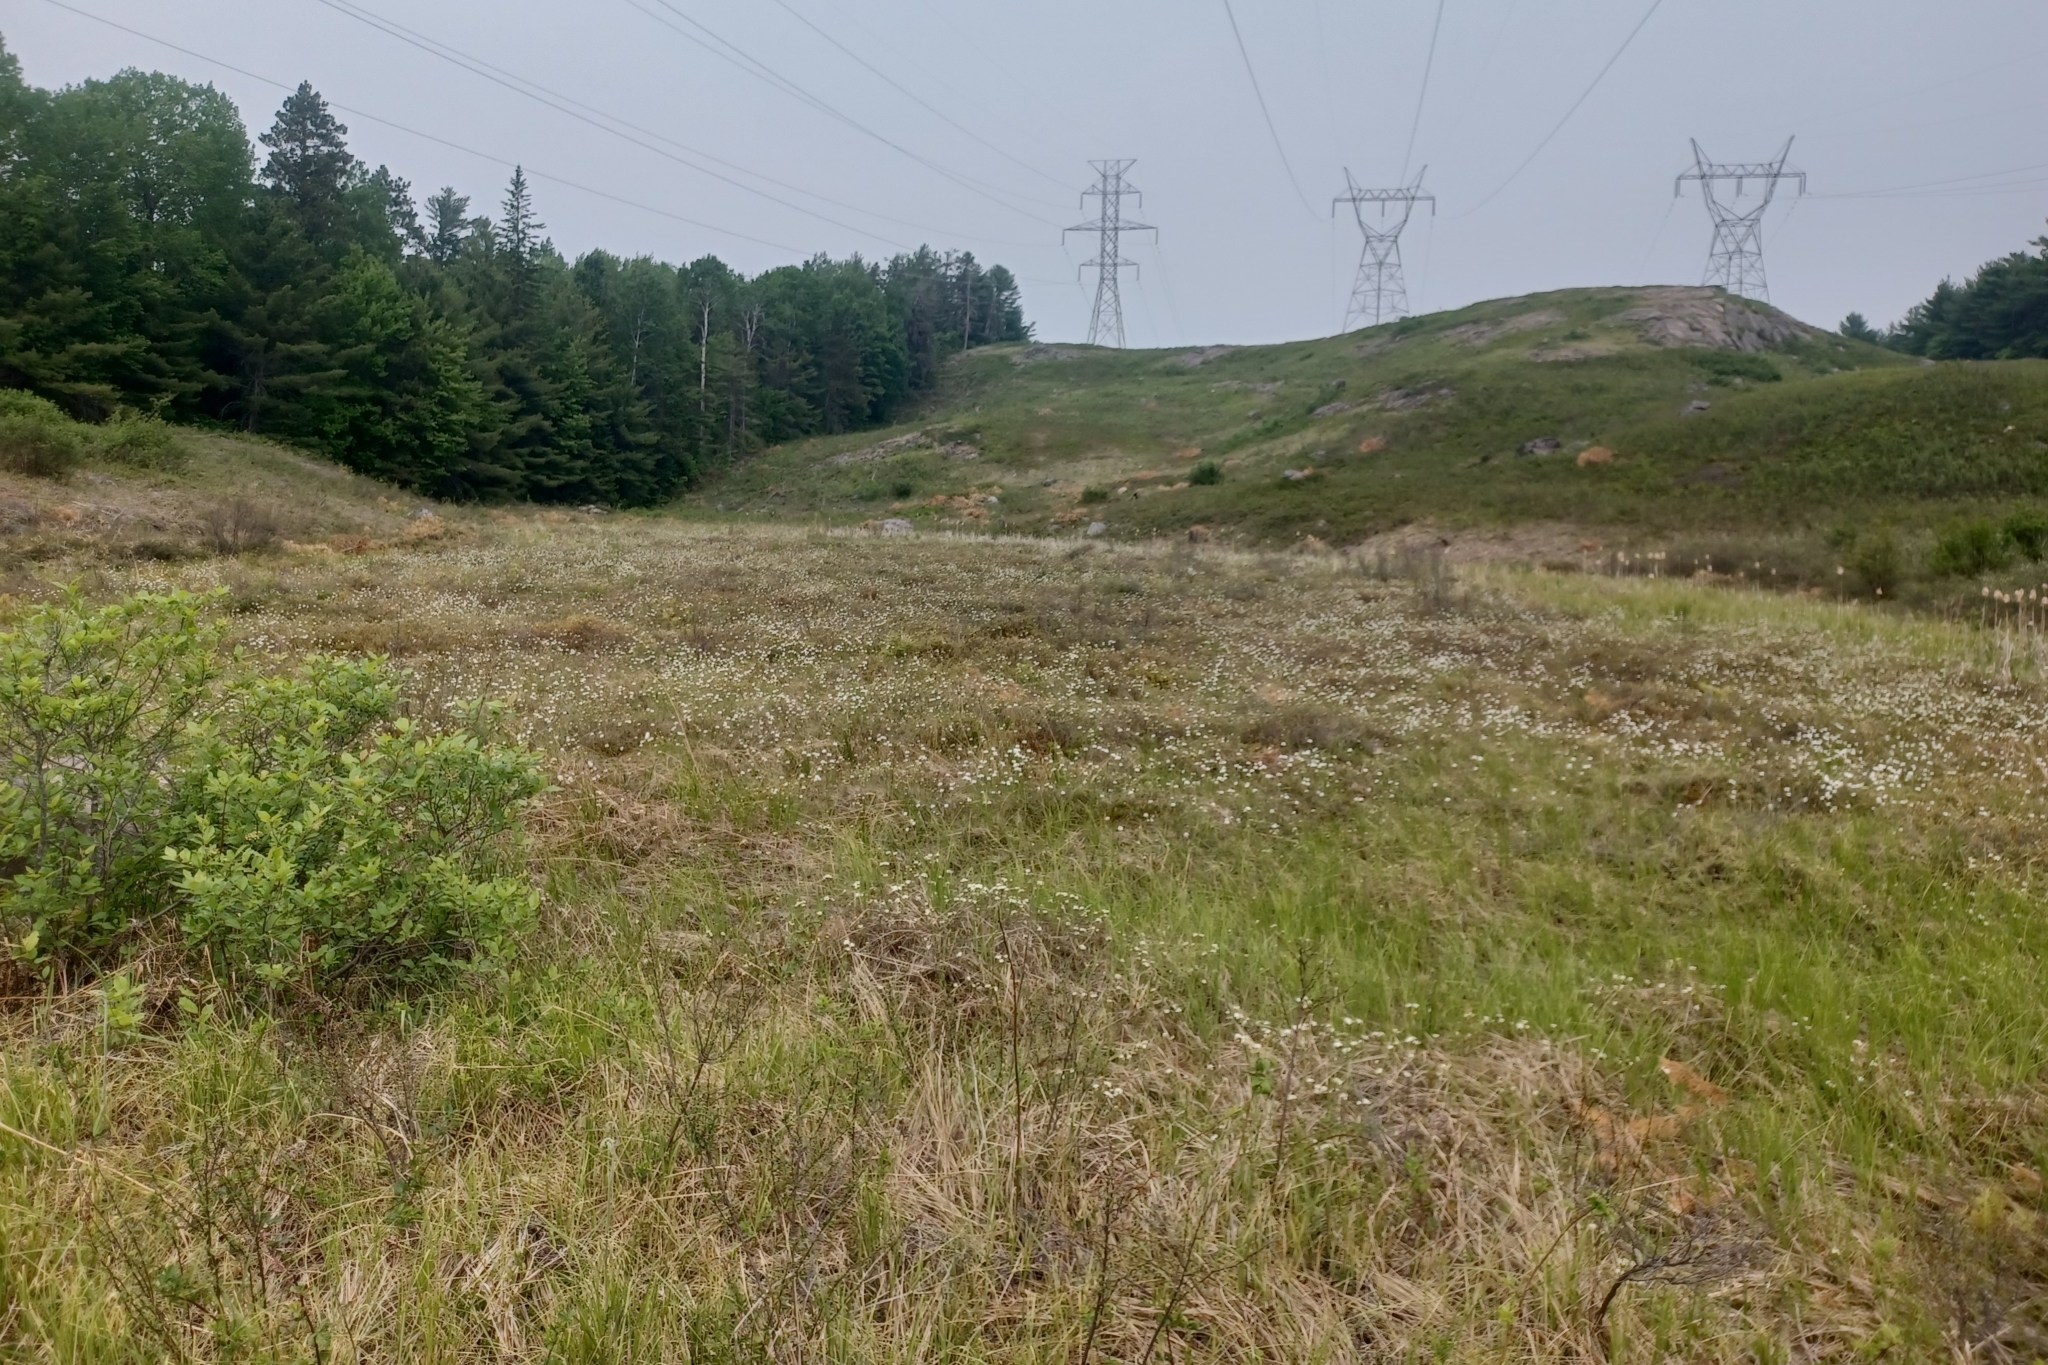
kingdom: Plantae
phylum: Tracheophyta
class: Liliopsida
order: Poales
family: Cyperaceae
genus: Eriophorum
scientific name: Eriophorum vaginatum
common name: Hare's-tail cottongrass
